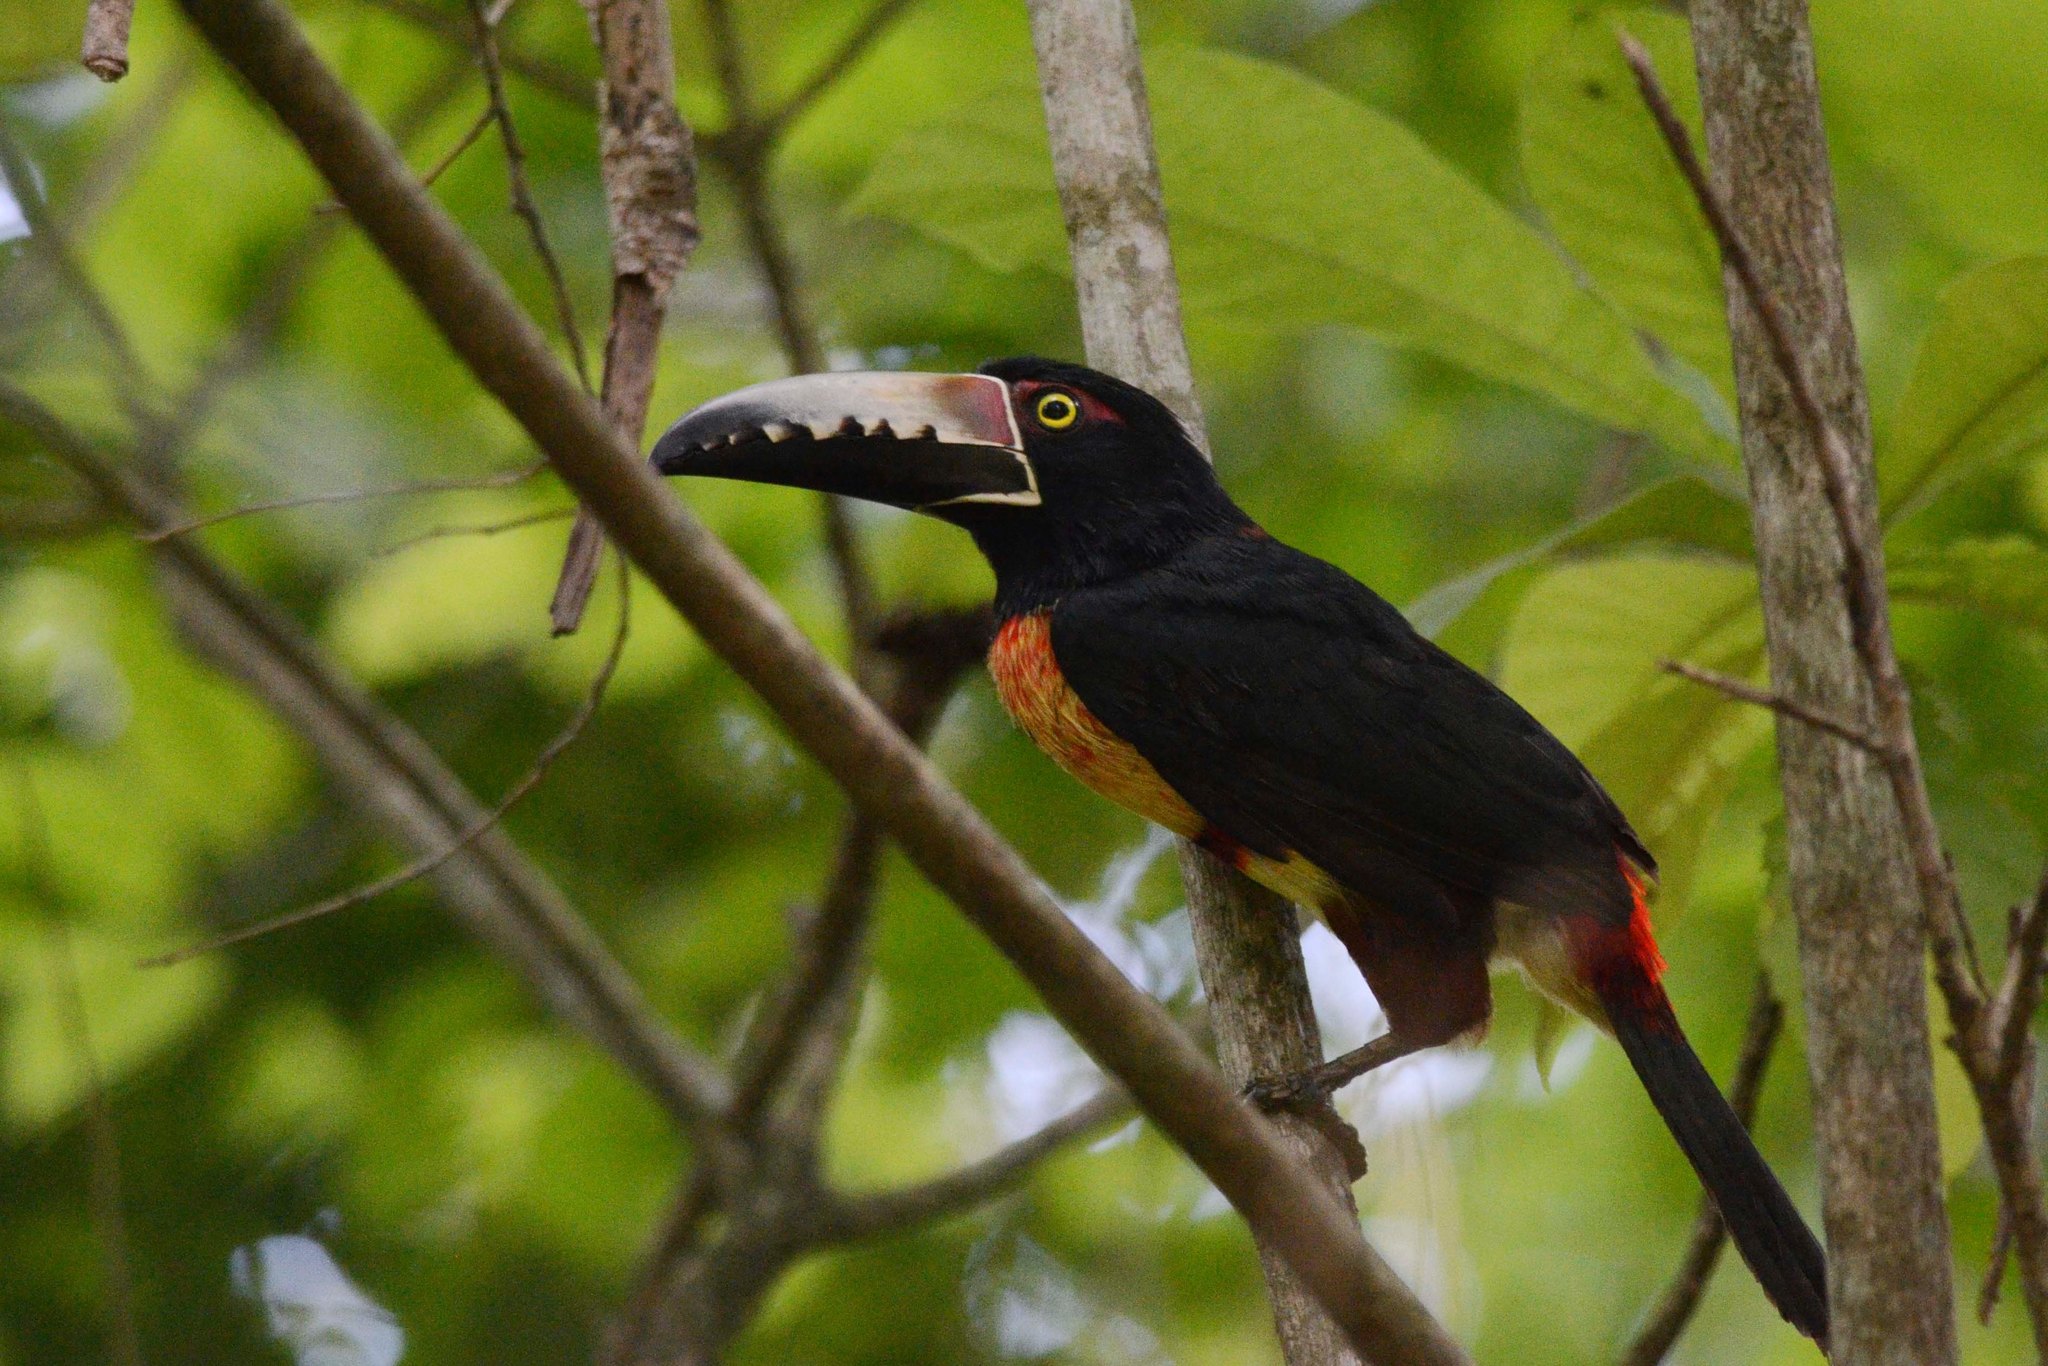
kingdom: Animalia
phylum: Chordata
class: Aves
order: Piciformes
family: Ramphastidae
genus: Pteroglossus
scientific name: Pteroglossus torquatus
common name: Collared aracari
